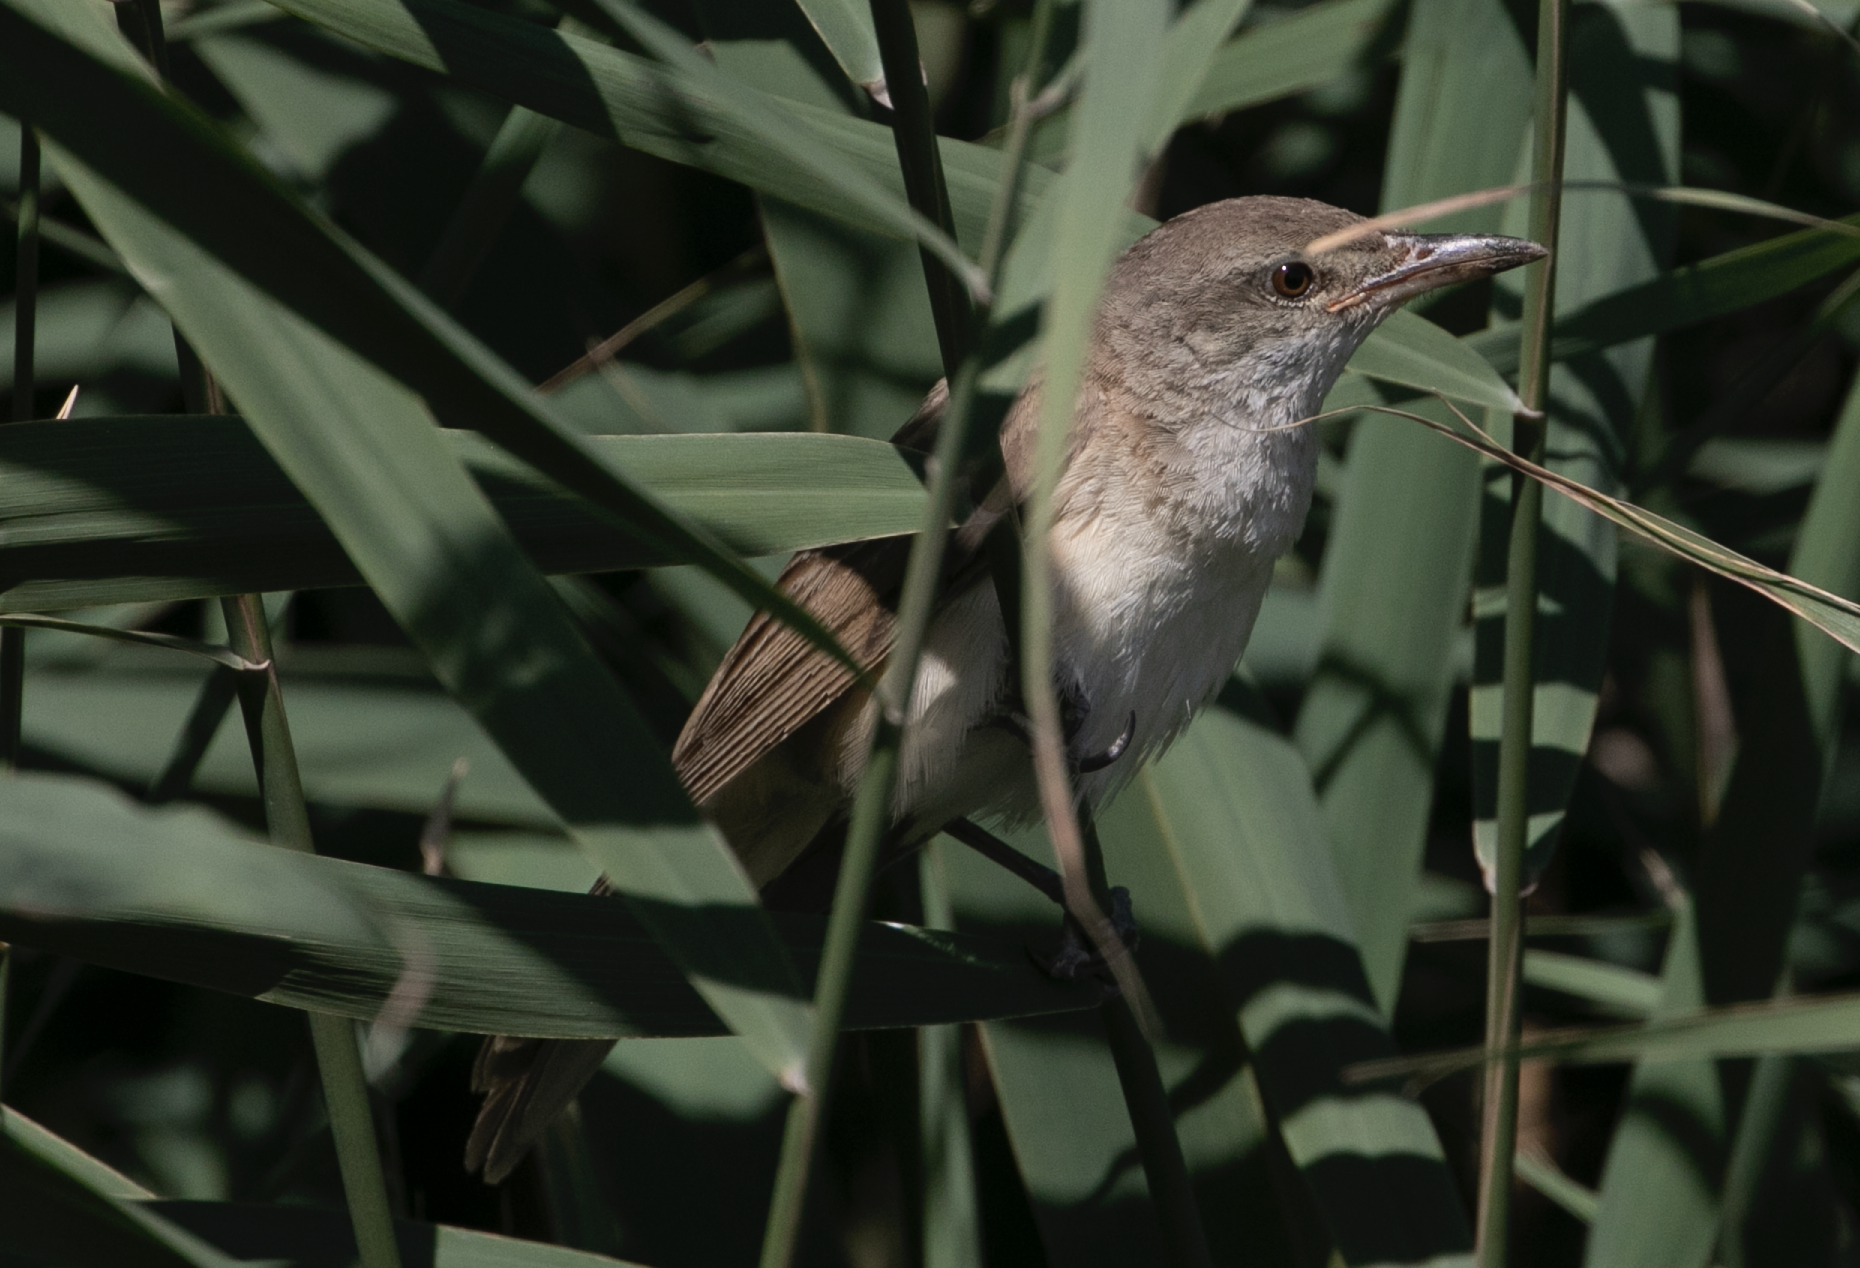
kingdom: Animalia
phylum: Chordata
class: Aves
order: Passeriformes
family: Acrocephalidae
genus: Acrocephalus
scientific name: Acrocephalus arundinaceus
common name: Great reed warbler
